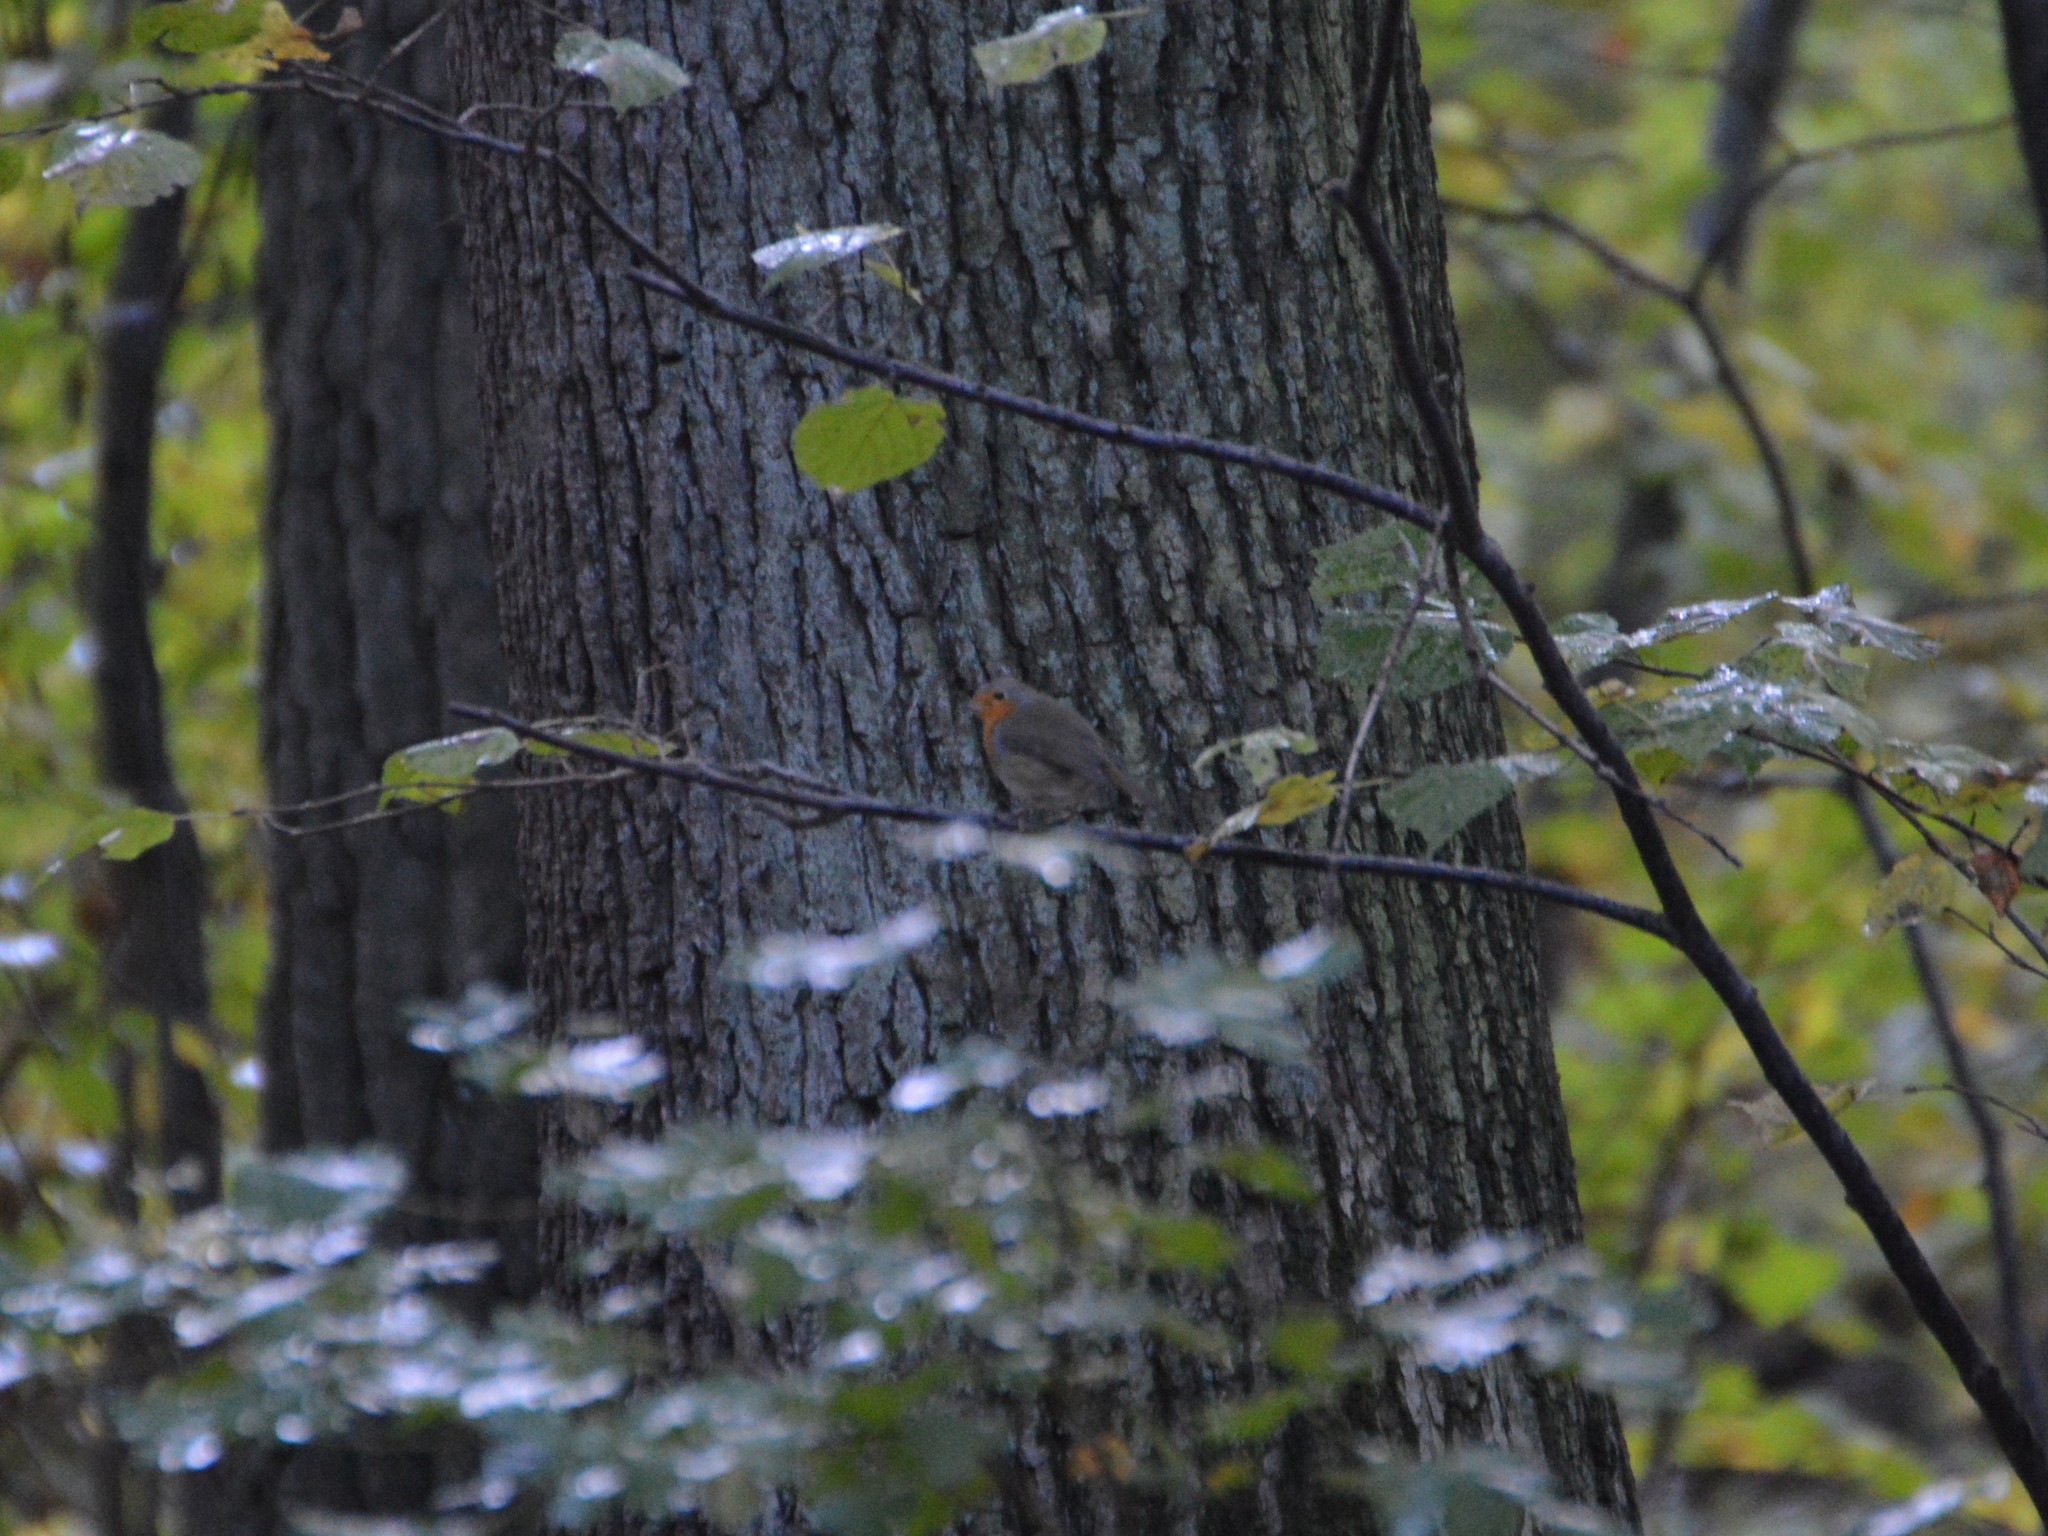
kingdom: Animalia
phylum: Chordata
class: Aves
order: Passeriformes
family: Muscicapidae
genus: Erithacus
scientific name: Erithacus rubecula
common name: European robin
